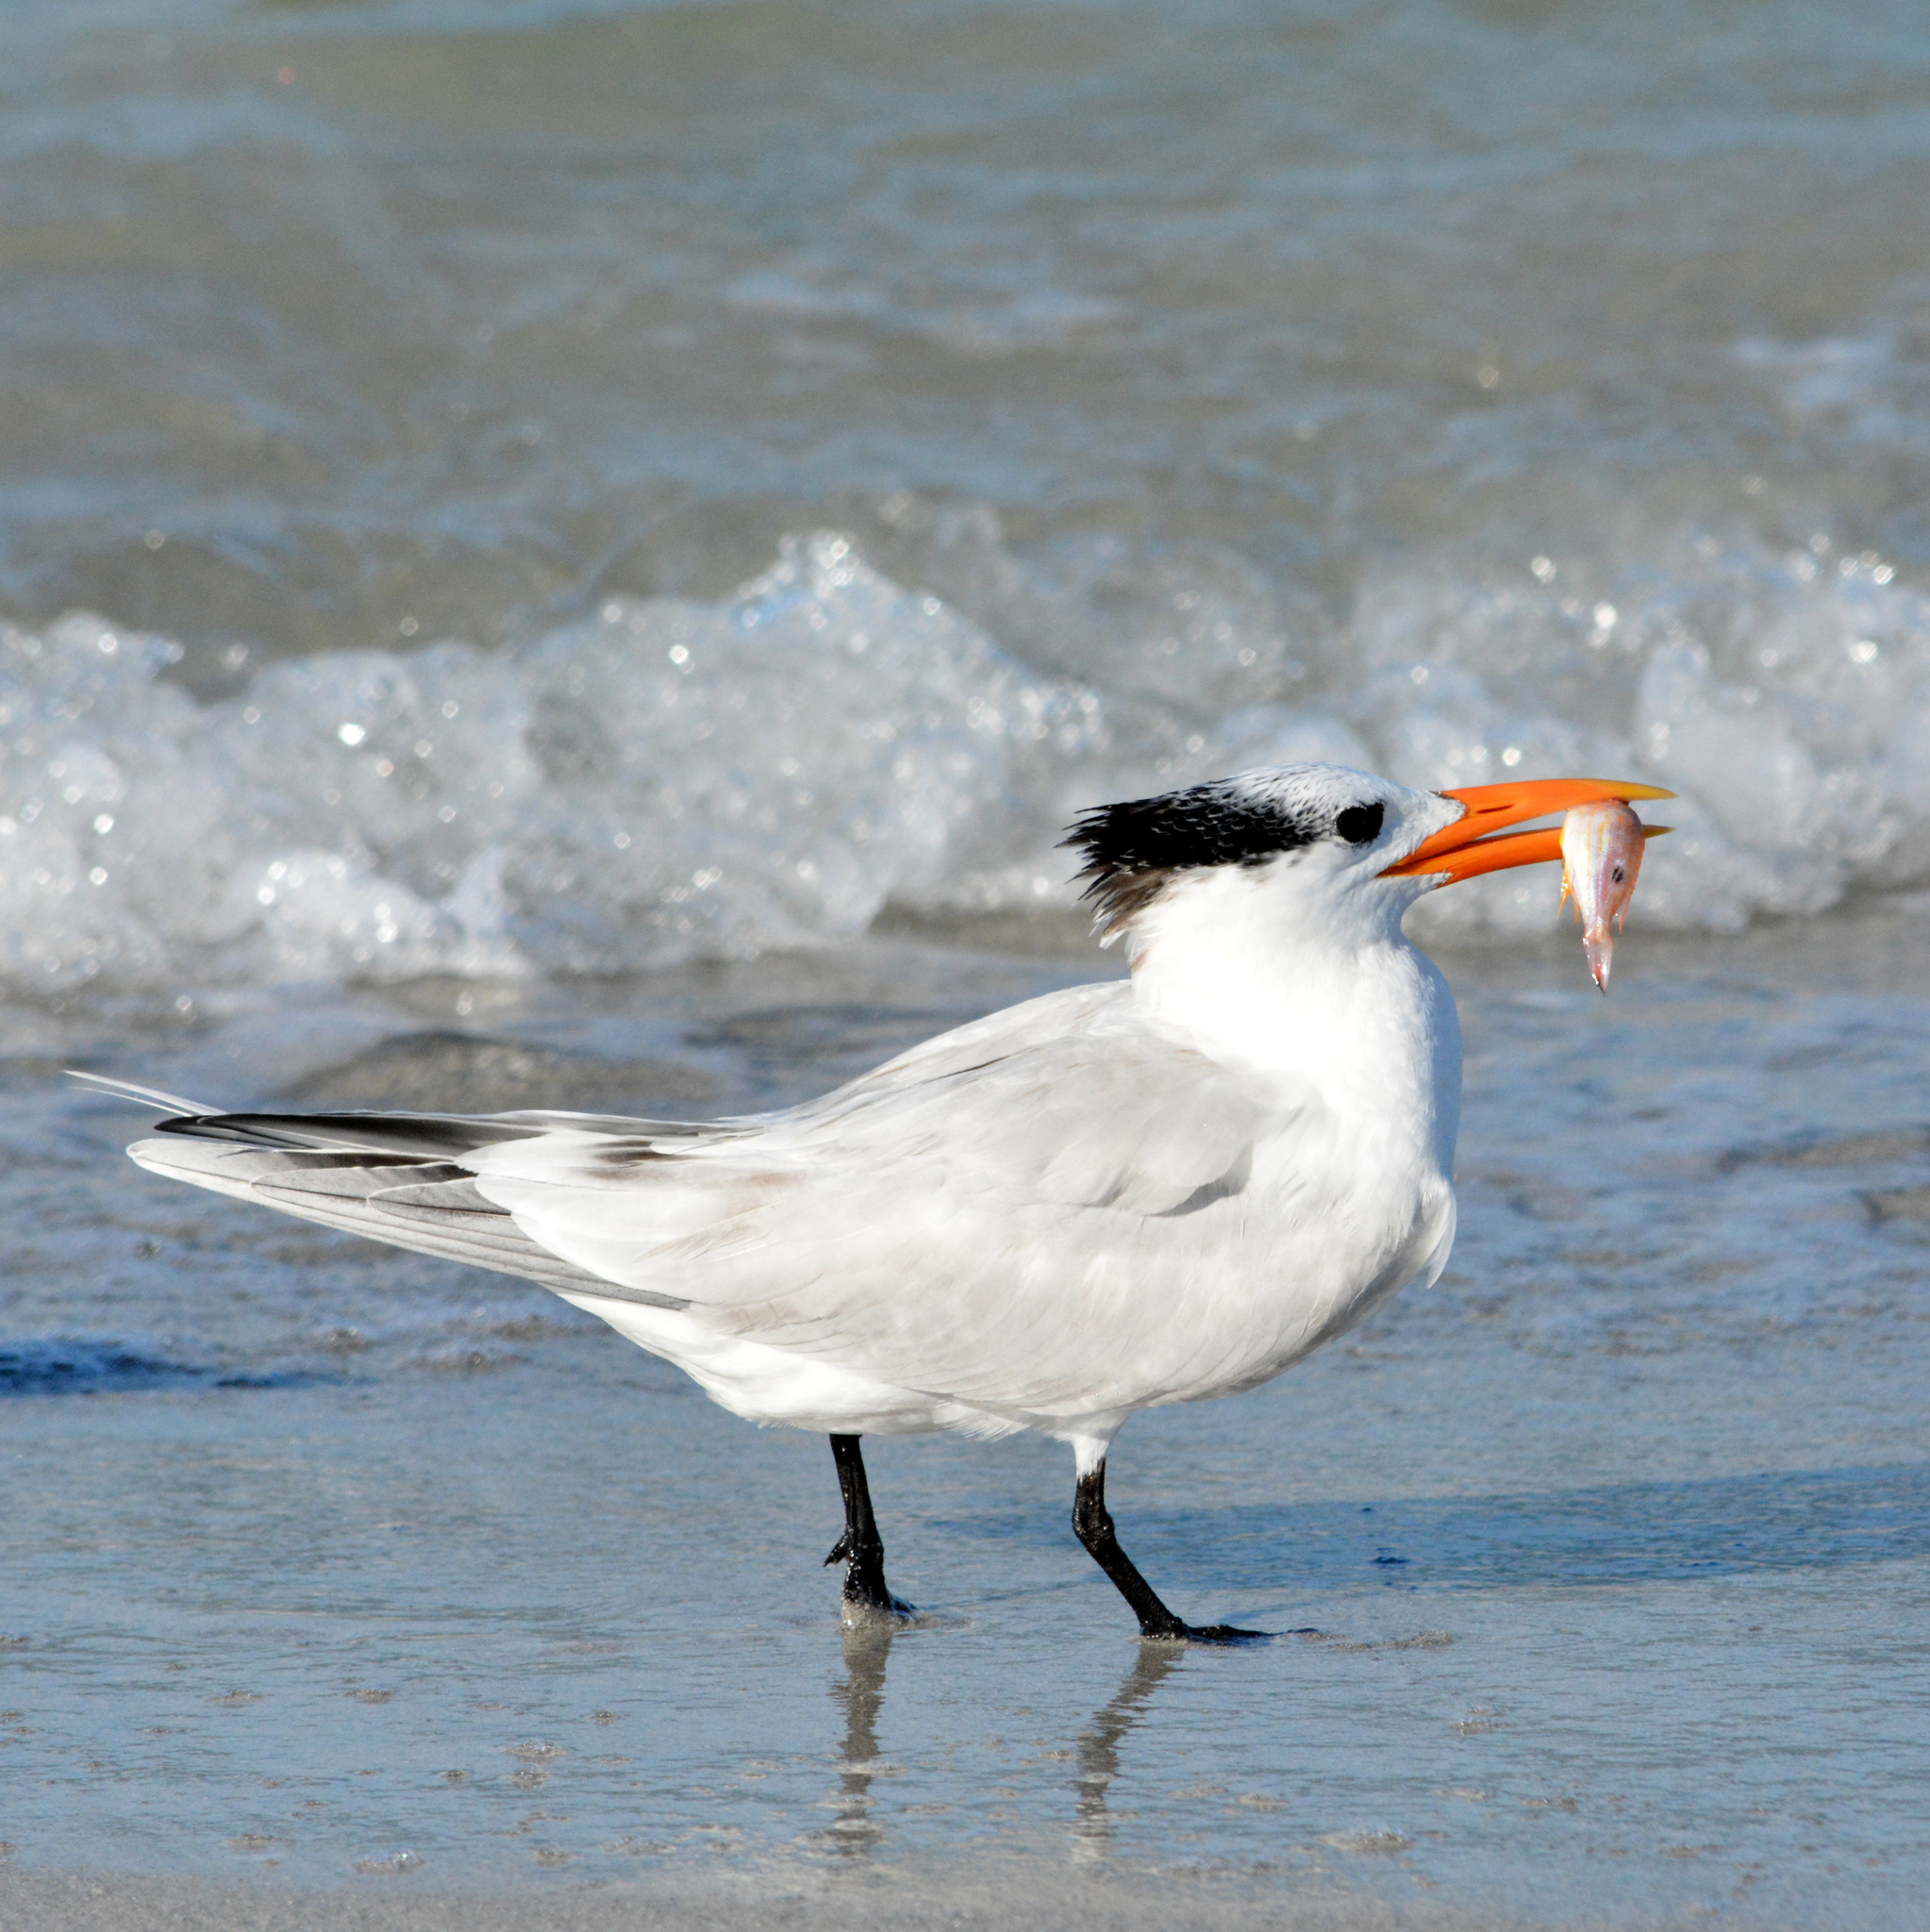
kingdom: Animalia
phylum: Chordata
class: Aves
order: Charadriiformes
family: Laridae
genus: Thalasseus
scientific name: Thalasseus maximus
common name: Royal tern
